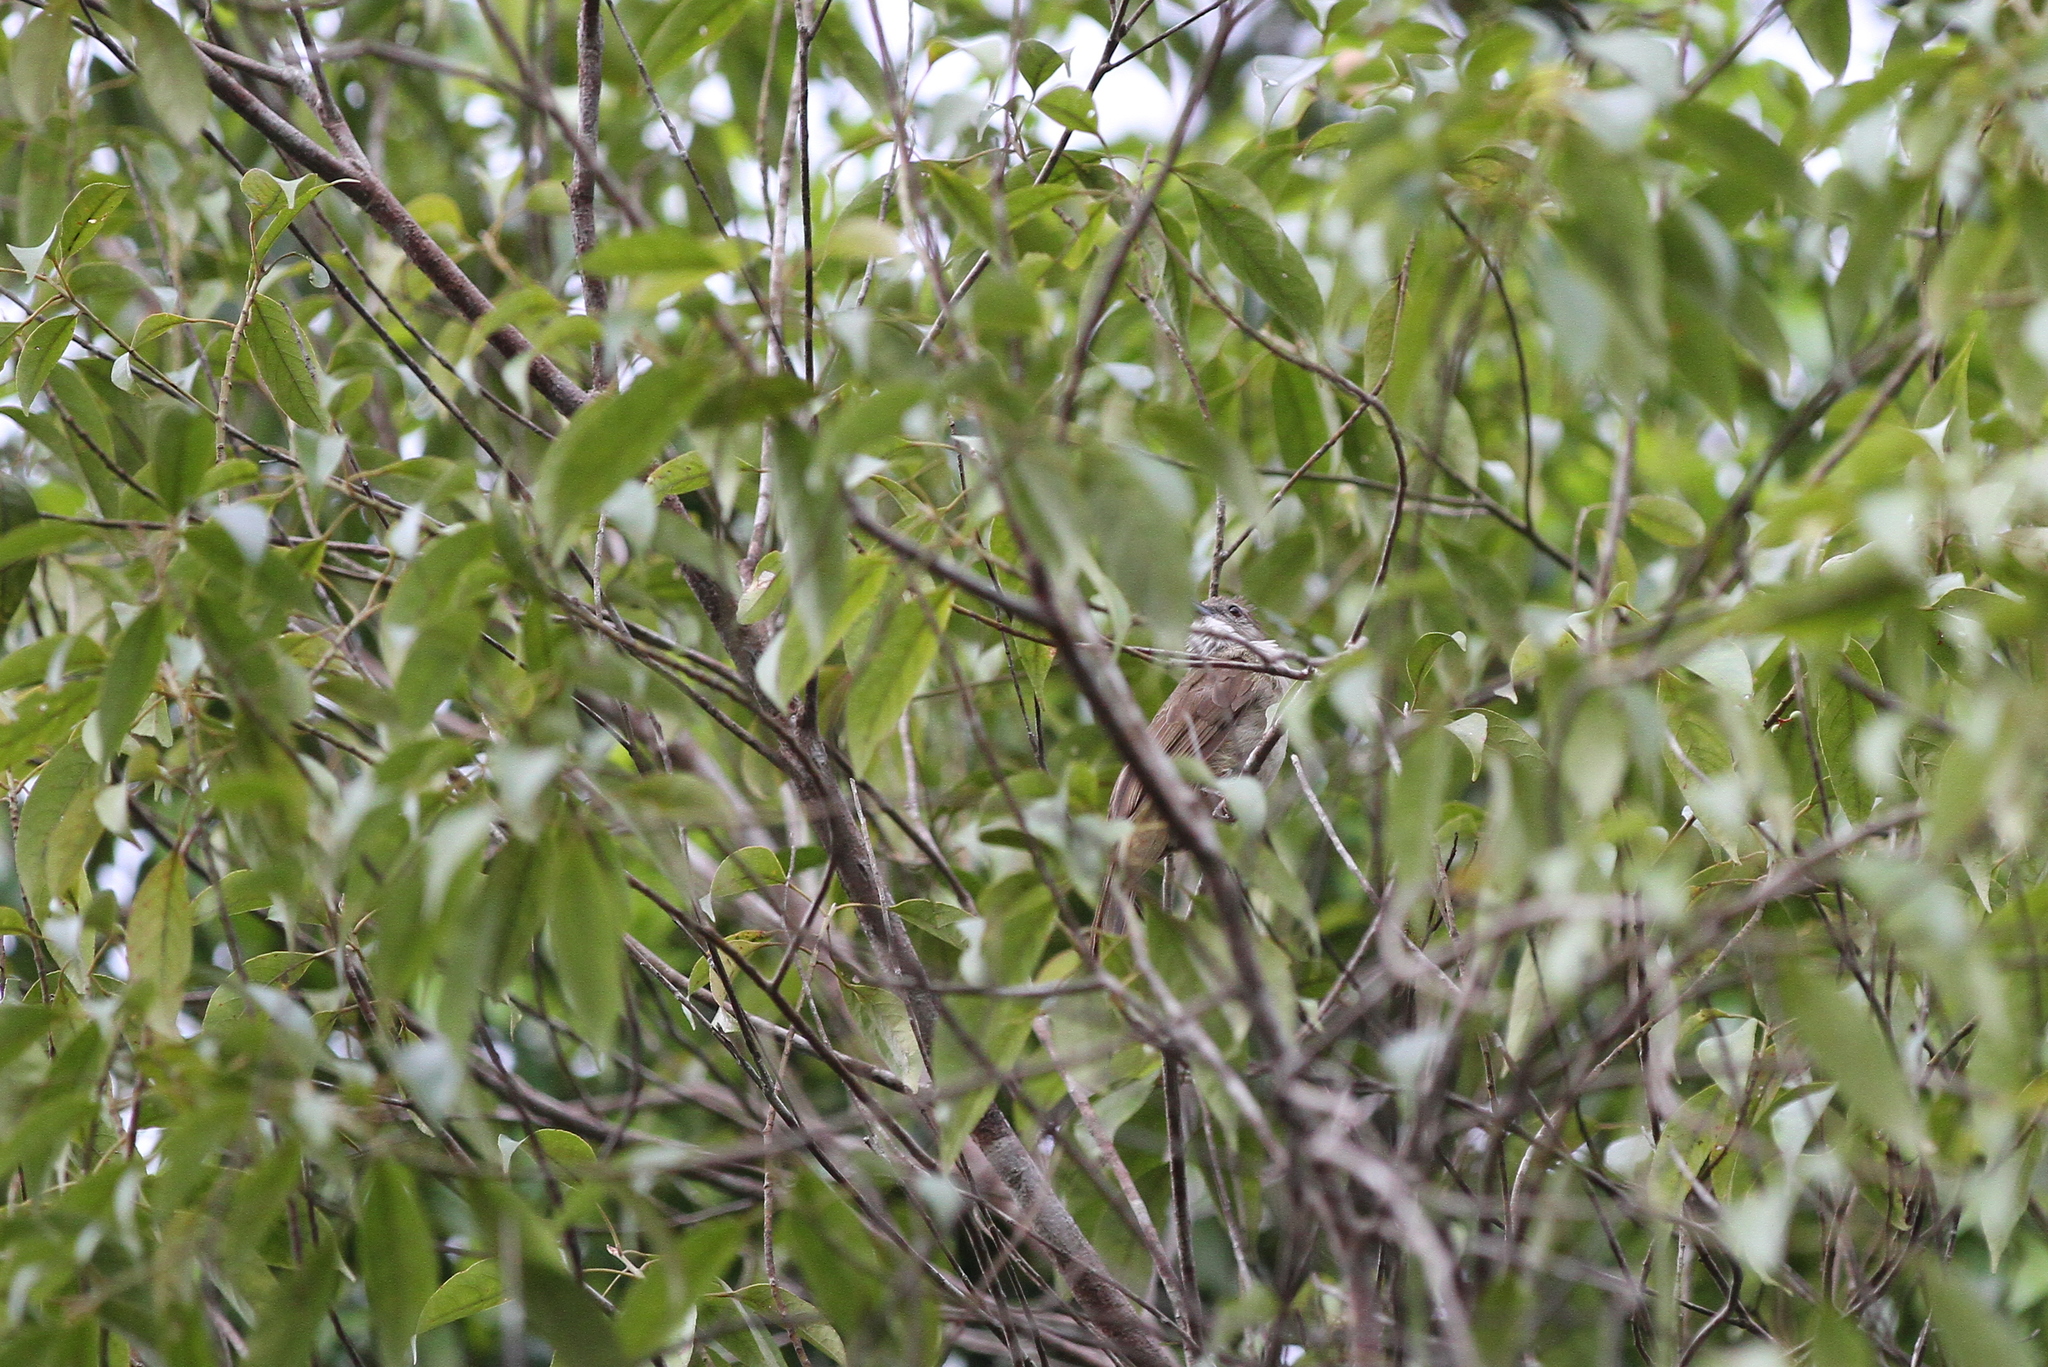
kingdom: Animalia
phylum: Chordata
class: Aves
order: Passeriformes
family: Pycnonotidae
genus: Alophoixus
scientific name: Alophoixus ochraceus
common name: Ochraceous bulbul
